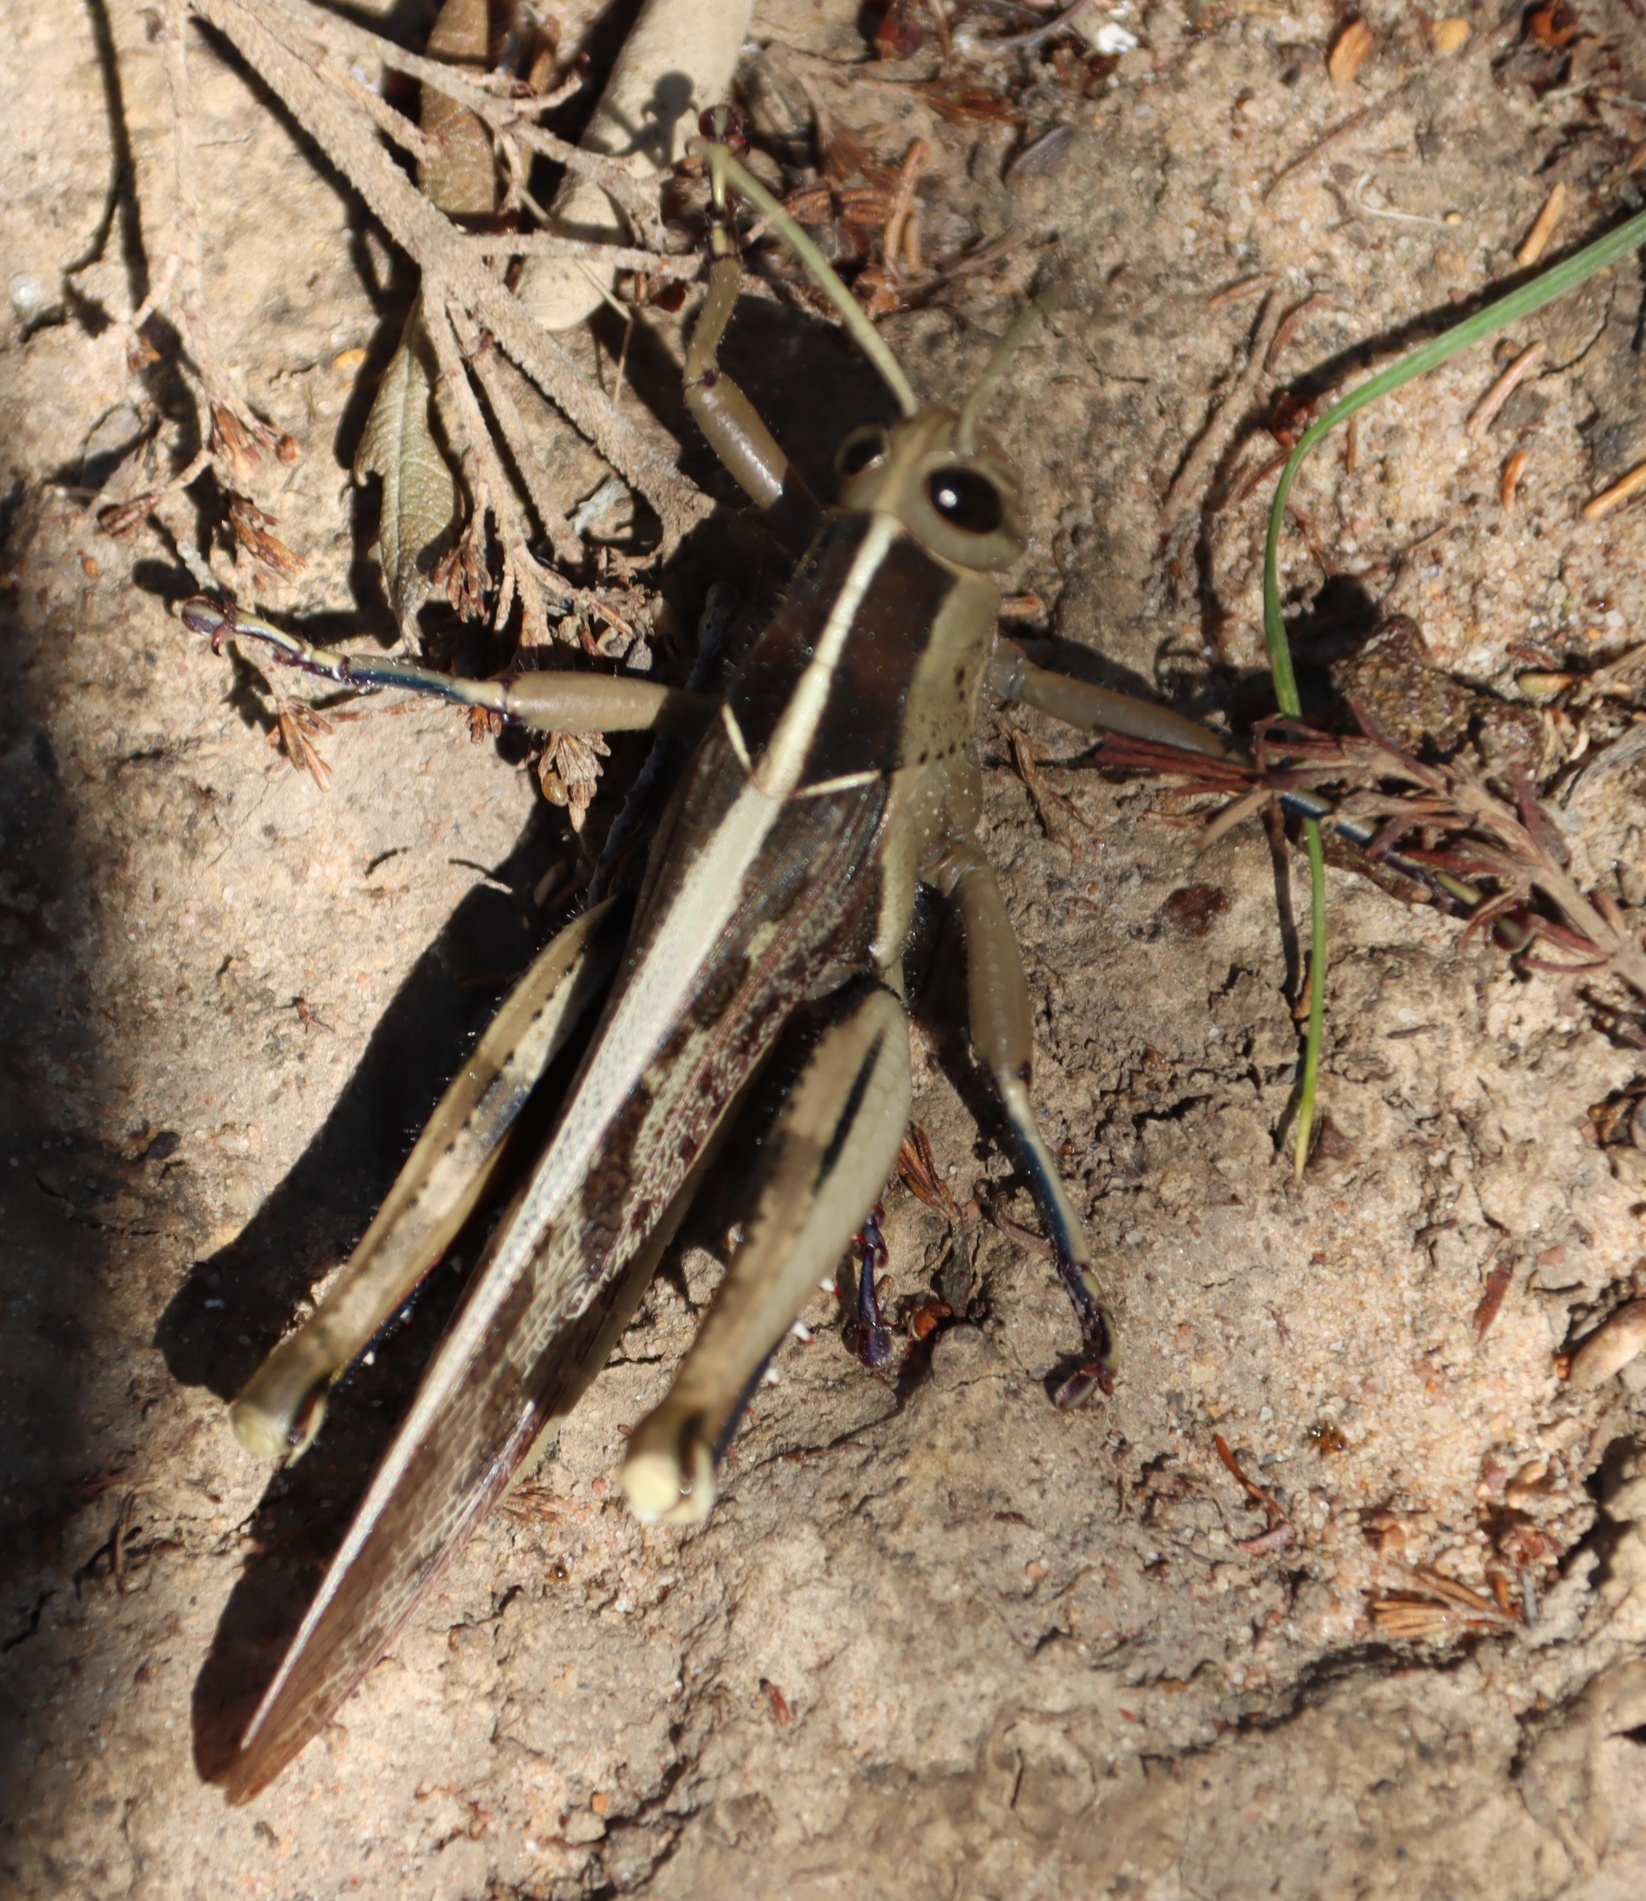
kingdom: Animalia
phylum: Arthropoda
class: Insecta
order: Orthoptera
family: Acrididae
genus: Acanthacris
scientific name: Acanthacris ruficornis
